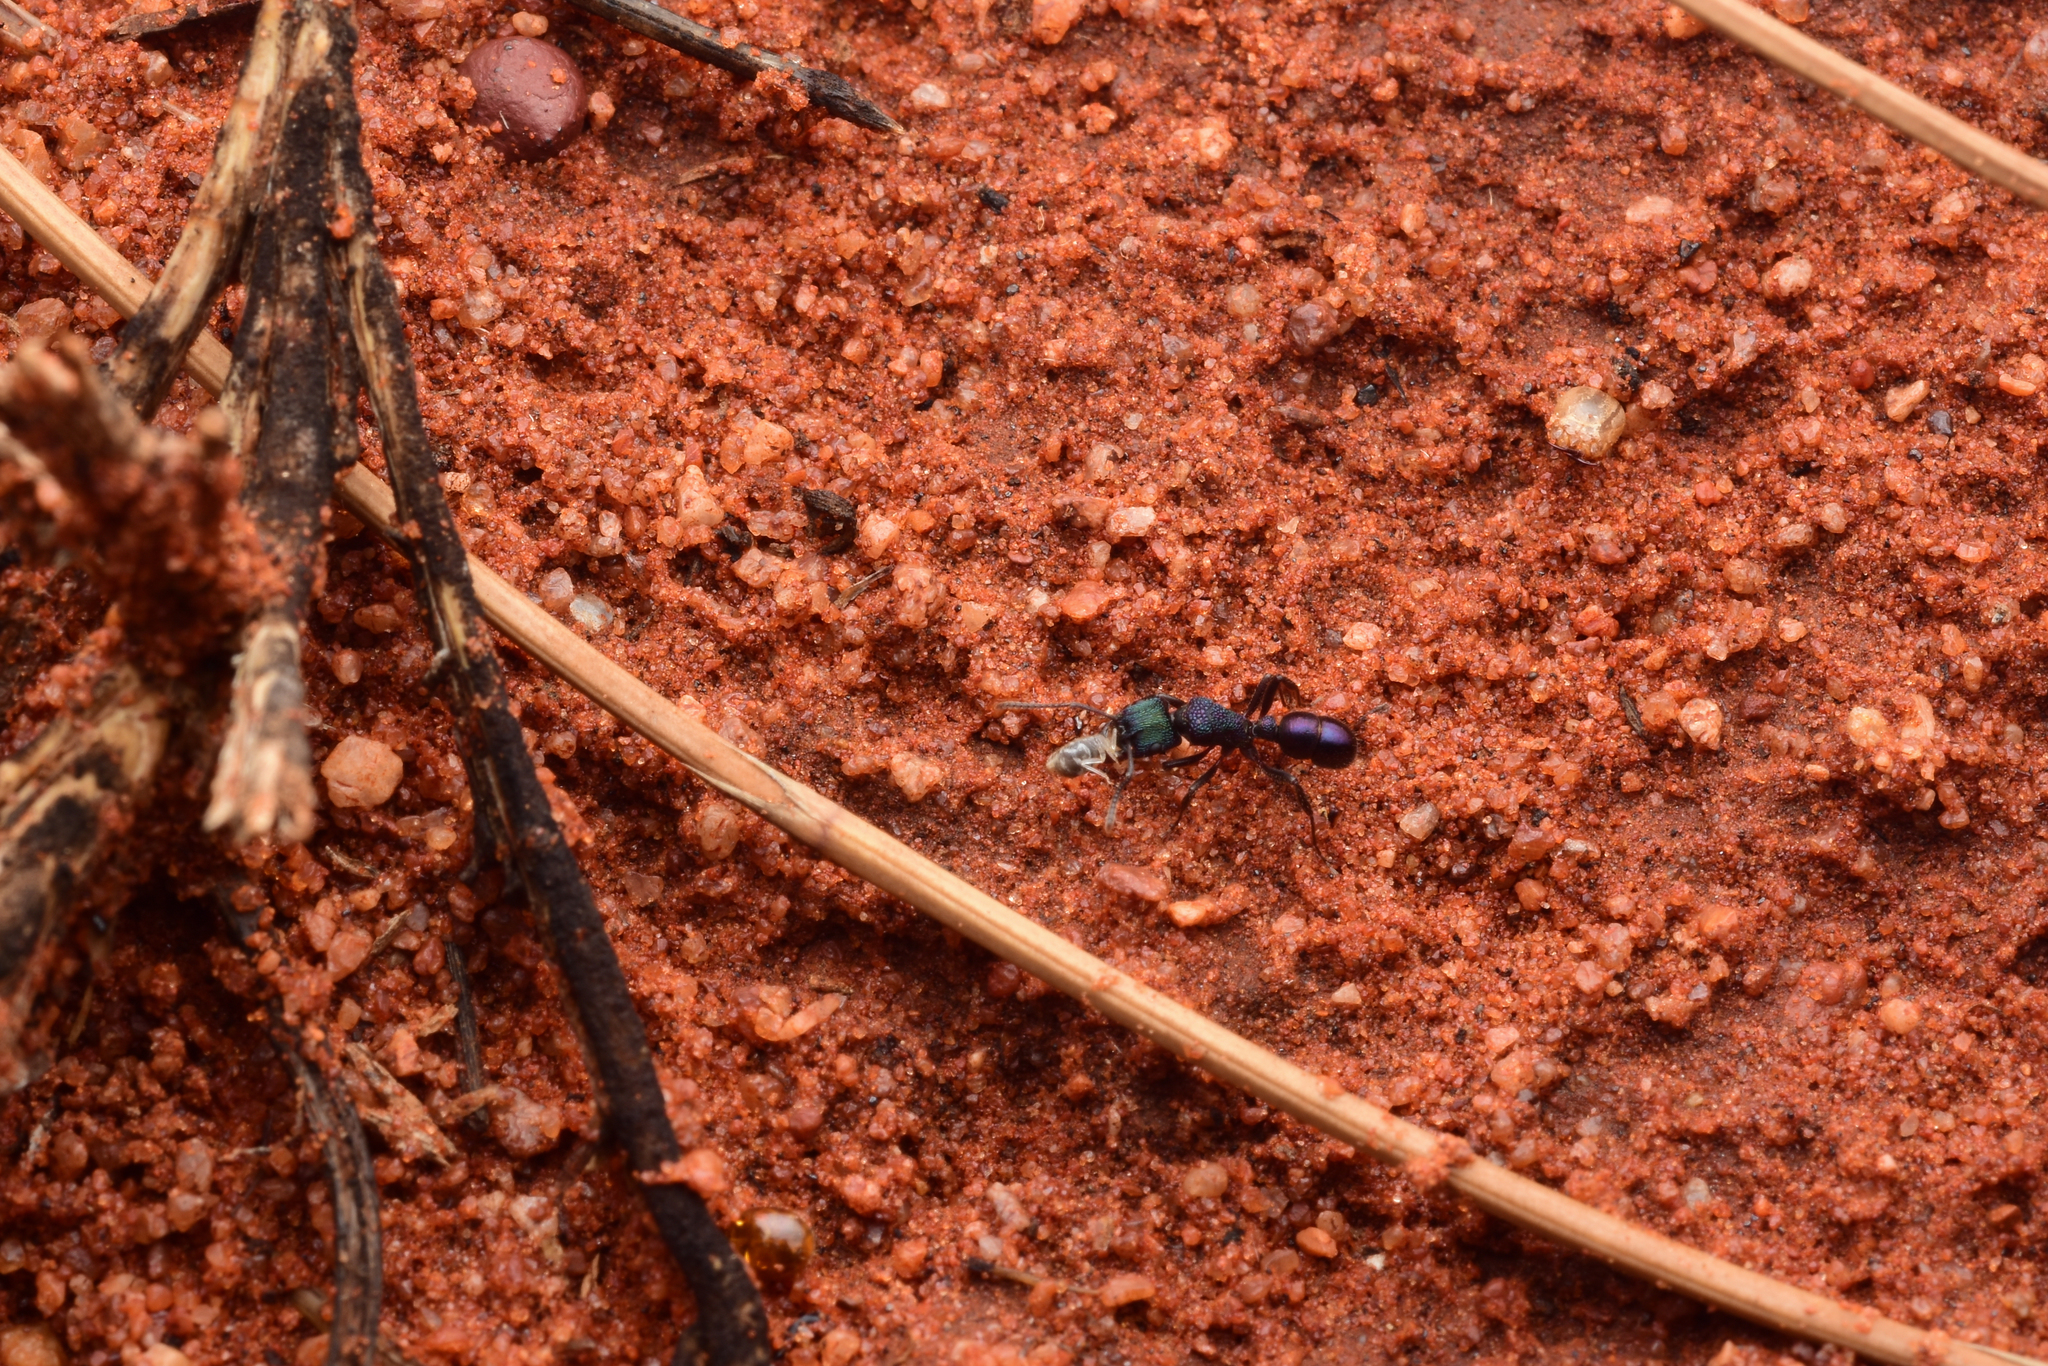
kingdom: Animalia
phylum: Arthropoda
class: Insecta
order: Hymenoptera
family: Formicidae
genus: Rhytidoponera
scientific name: Rhytidoponera metallica
